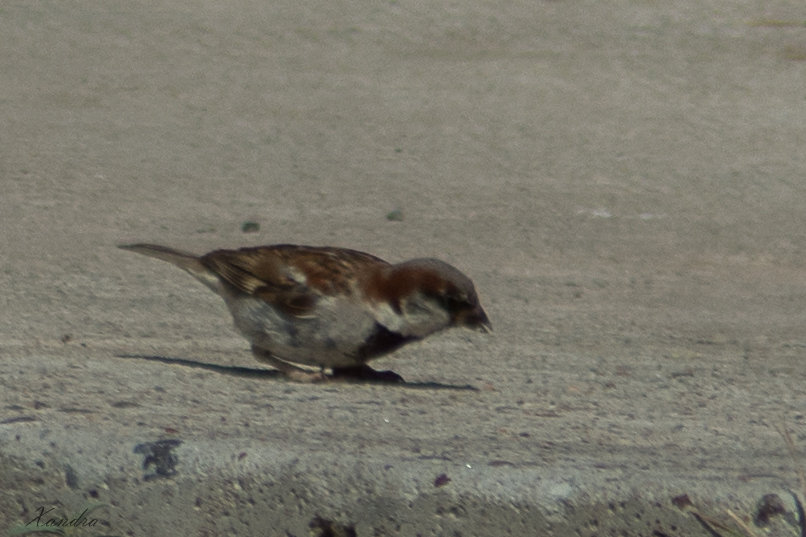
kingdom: Animalia
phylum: Chordata
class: Aves
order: Passeriformes
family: Passeridae
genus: Passer
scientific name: Passer domesticus
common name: House sparrow
